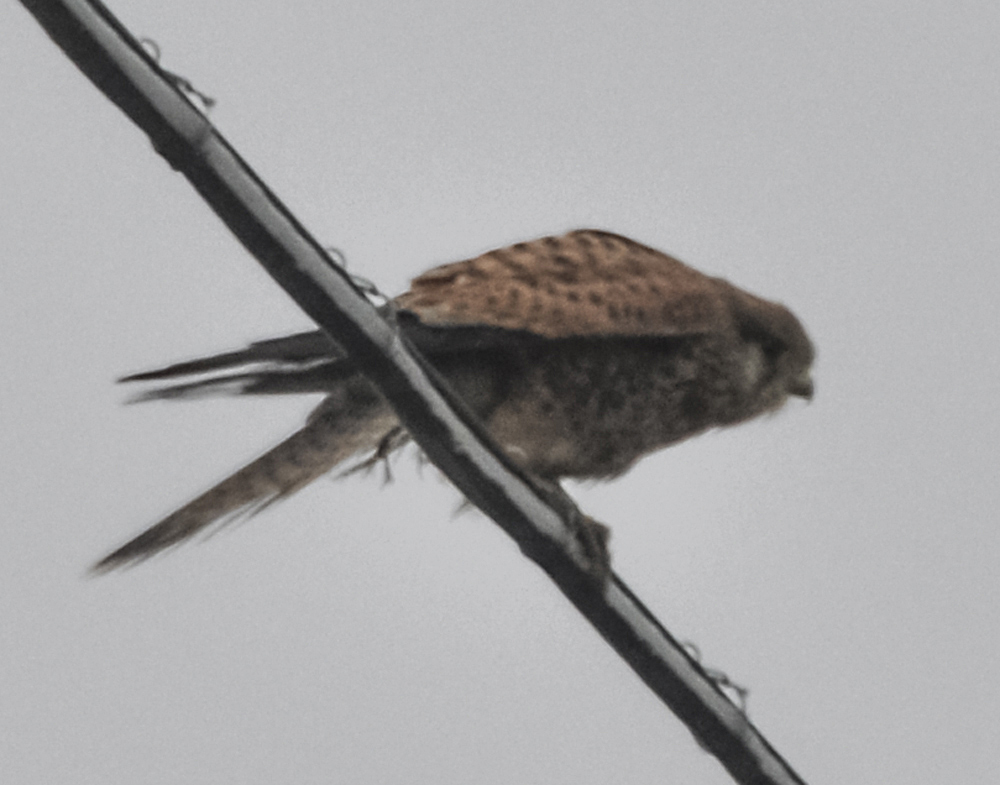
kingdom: Animalia
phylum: Chordata
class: Aves
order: Falconiformes
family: Falconidae
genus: Falco
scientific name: Falco tinnunculus
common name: Common kestrel
